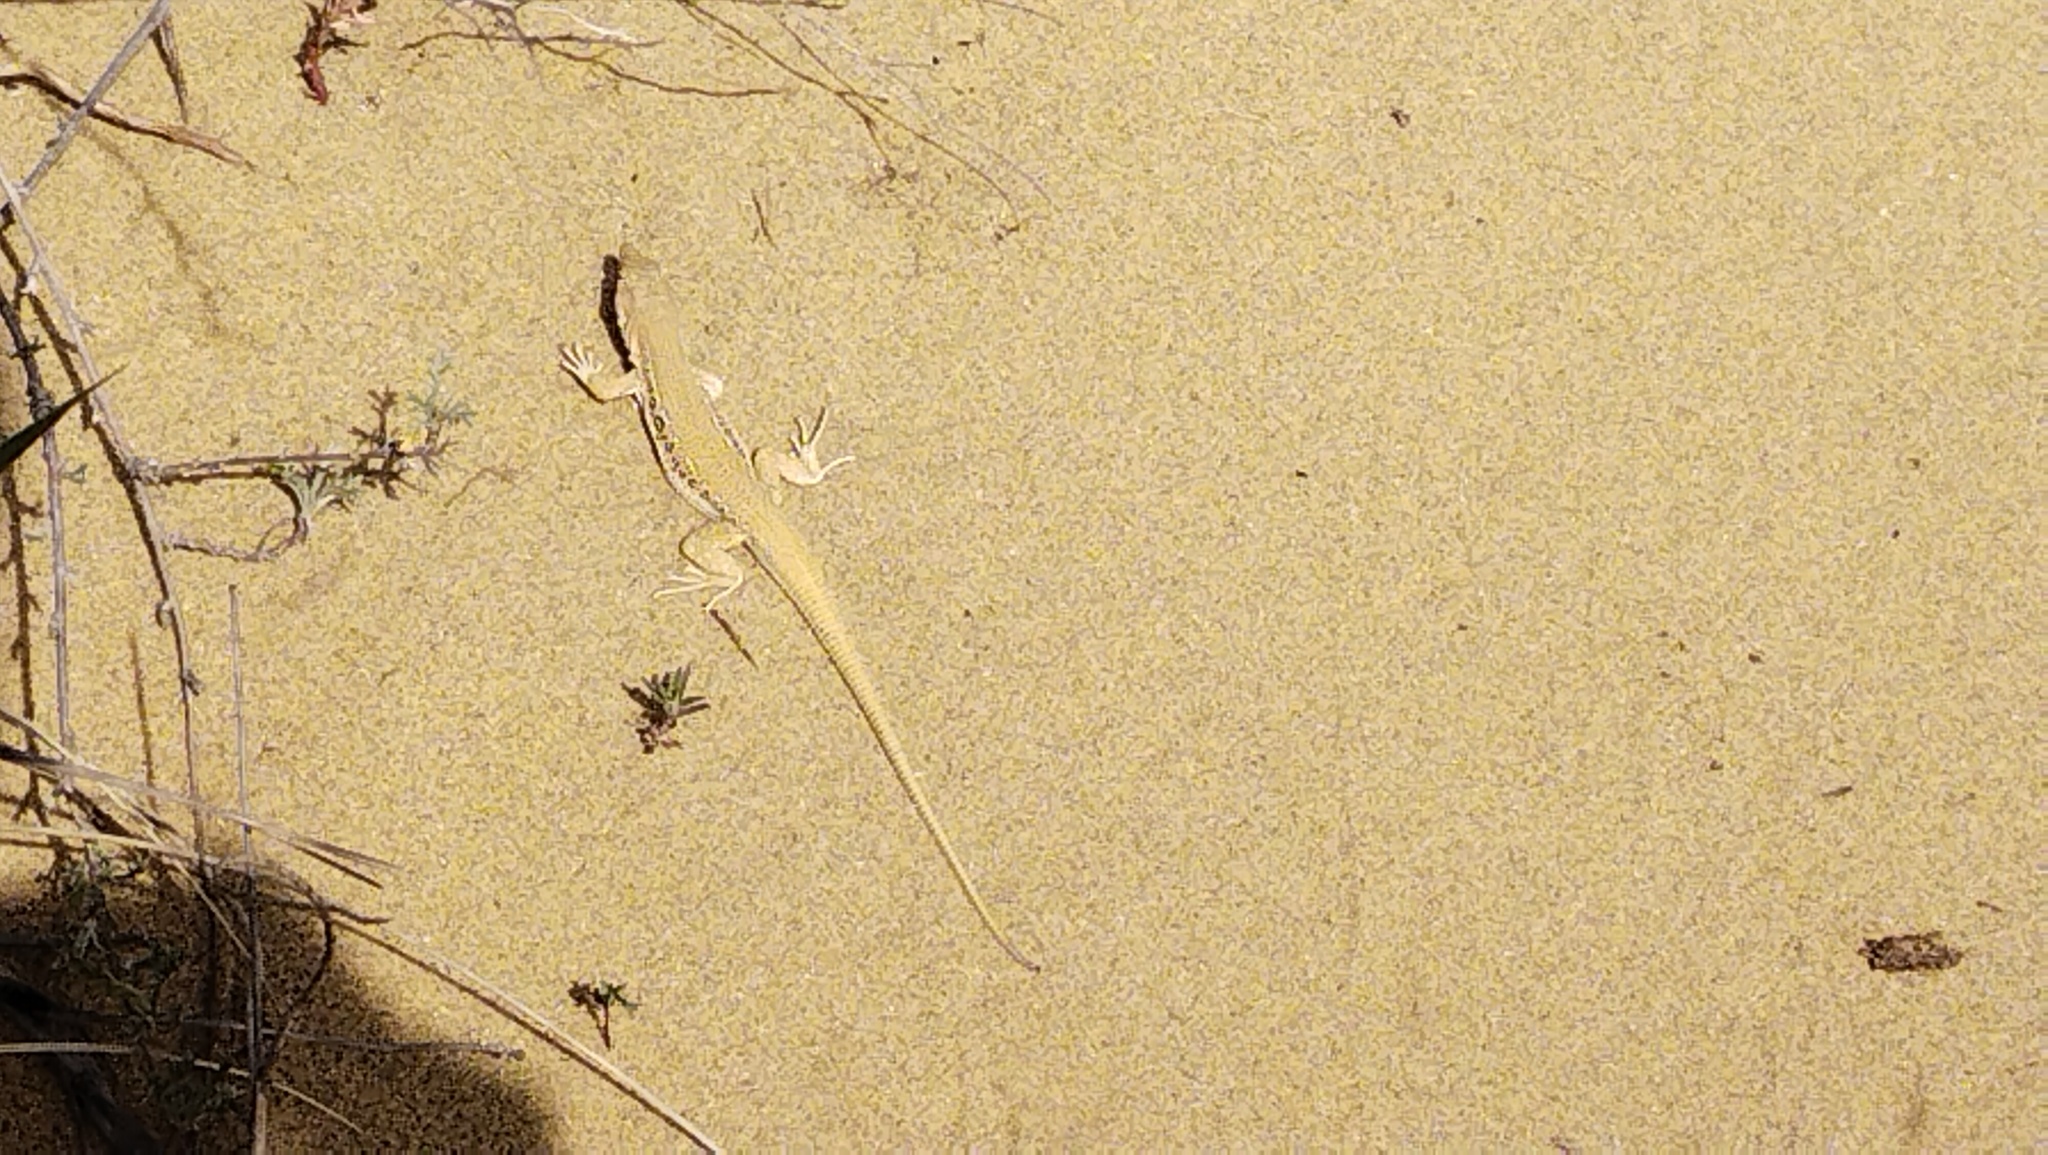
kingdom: Animalia
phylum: Chordata
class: Squamata
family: Lacertidae
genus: Eremias
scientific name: Eremias velox
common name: Central asian racerunner
